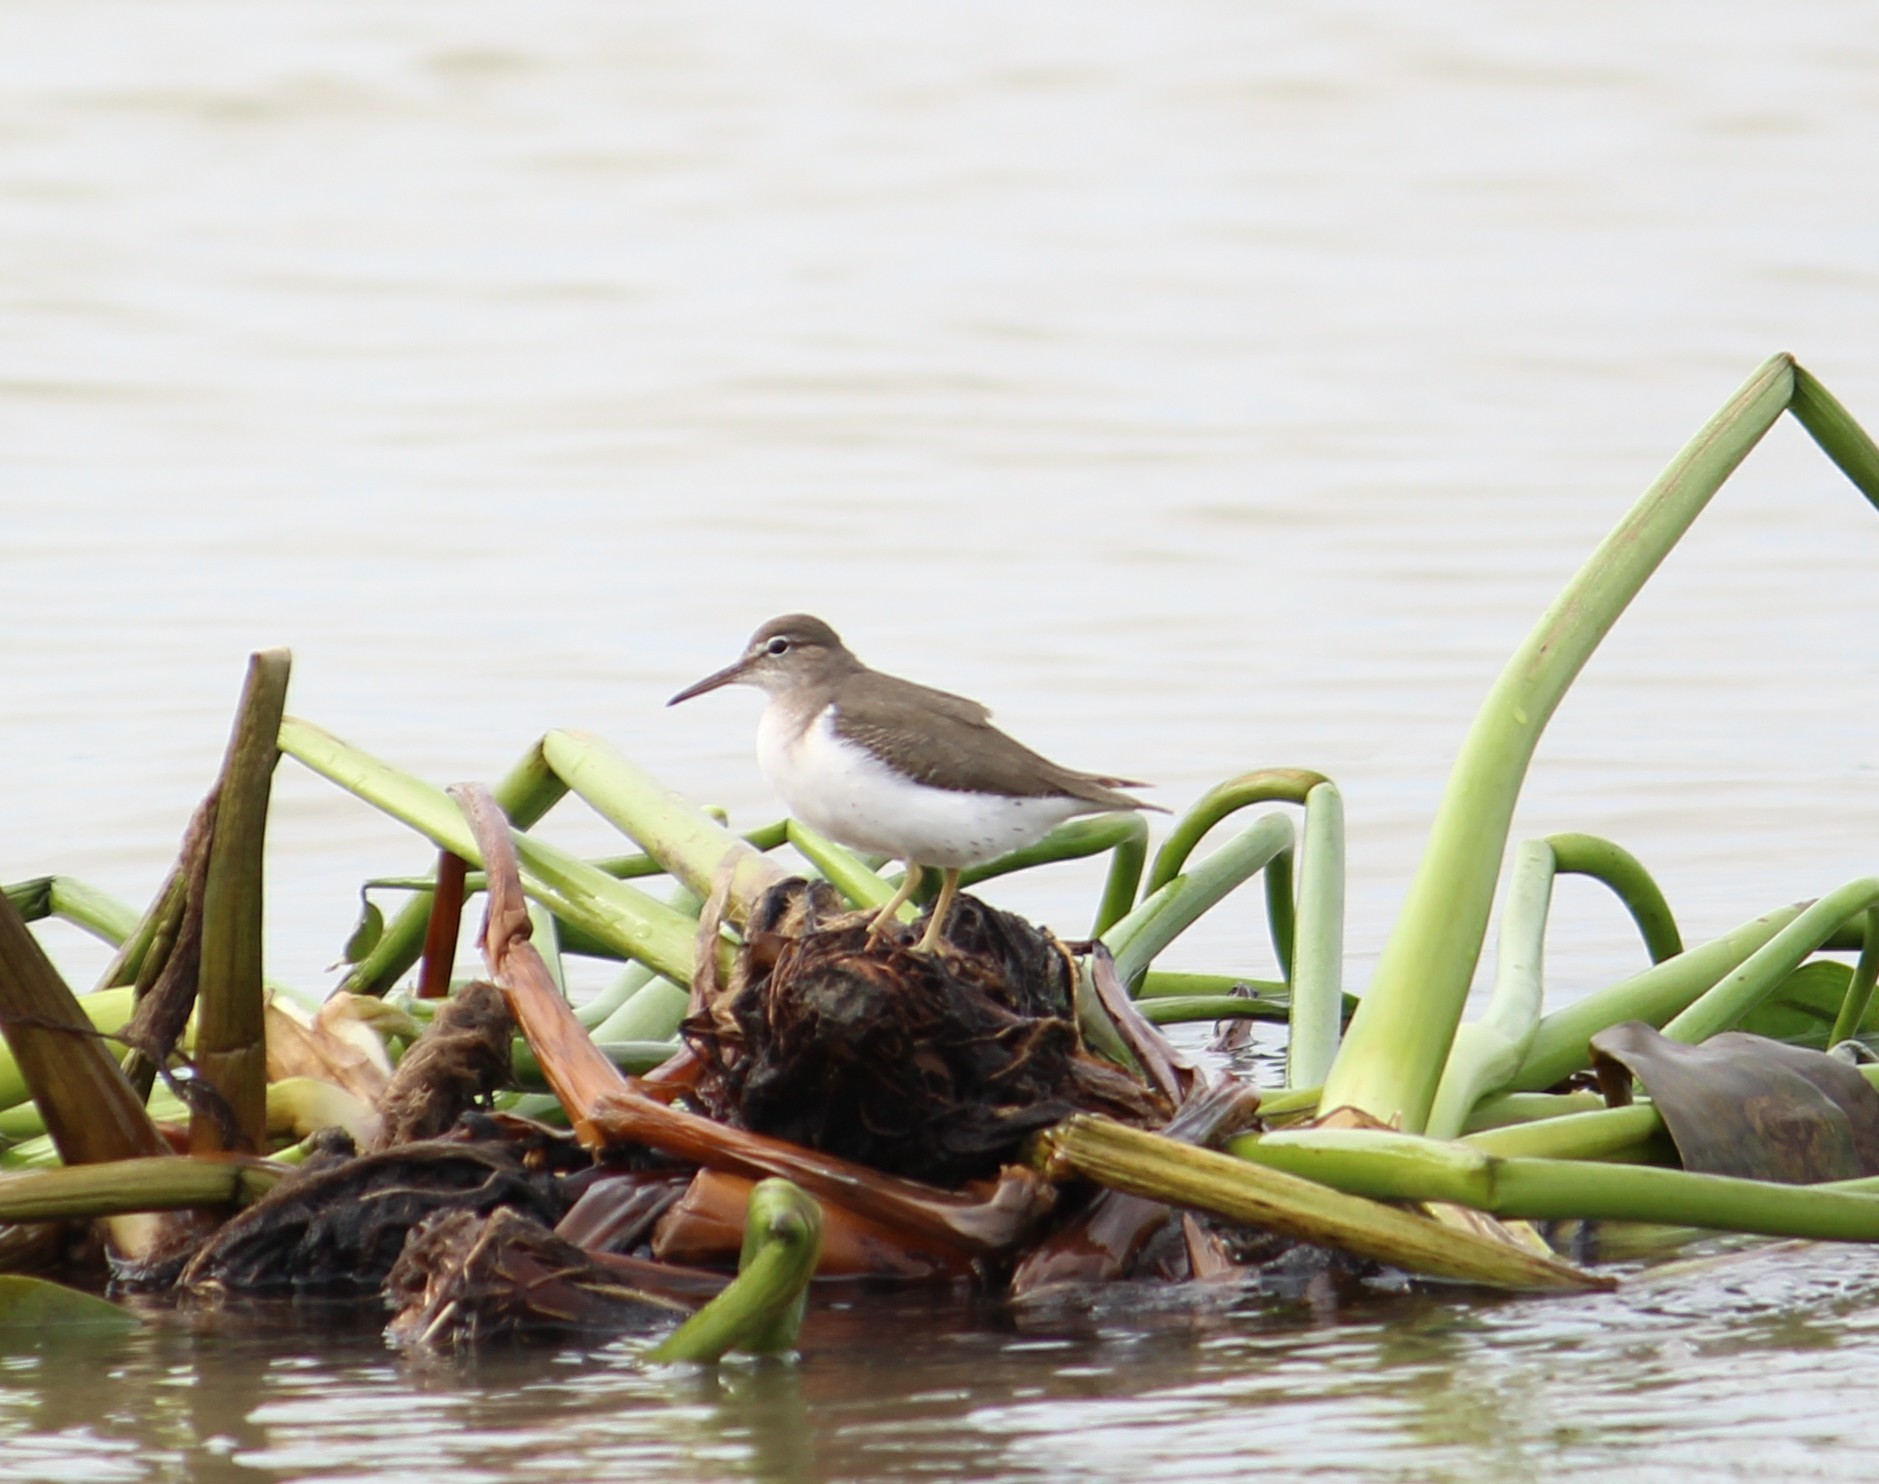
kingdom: Animalia
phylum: Chordata
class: Aves
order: Charadriiformes
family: Scolopacidae
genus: Actitis
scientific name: Actitis macularius
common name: Spotted sandpiper
